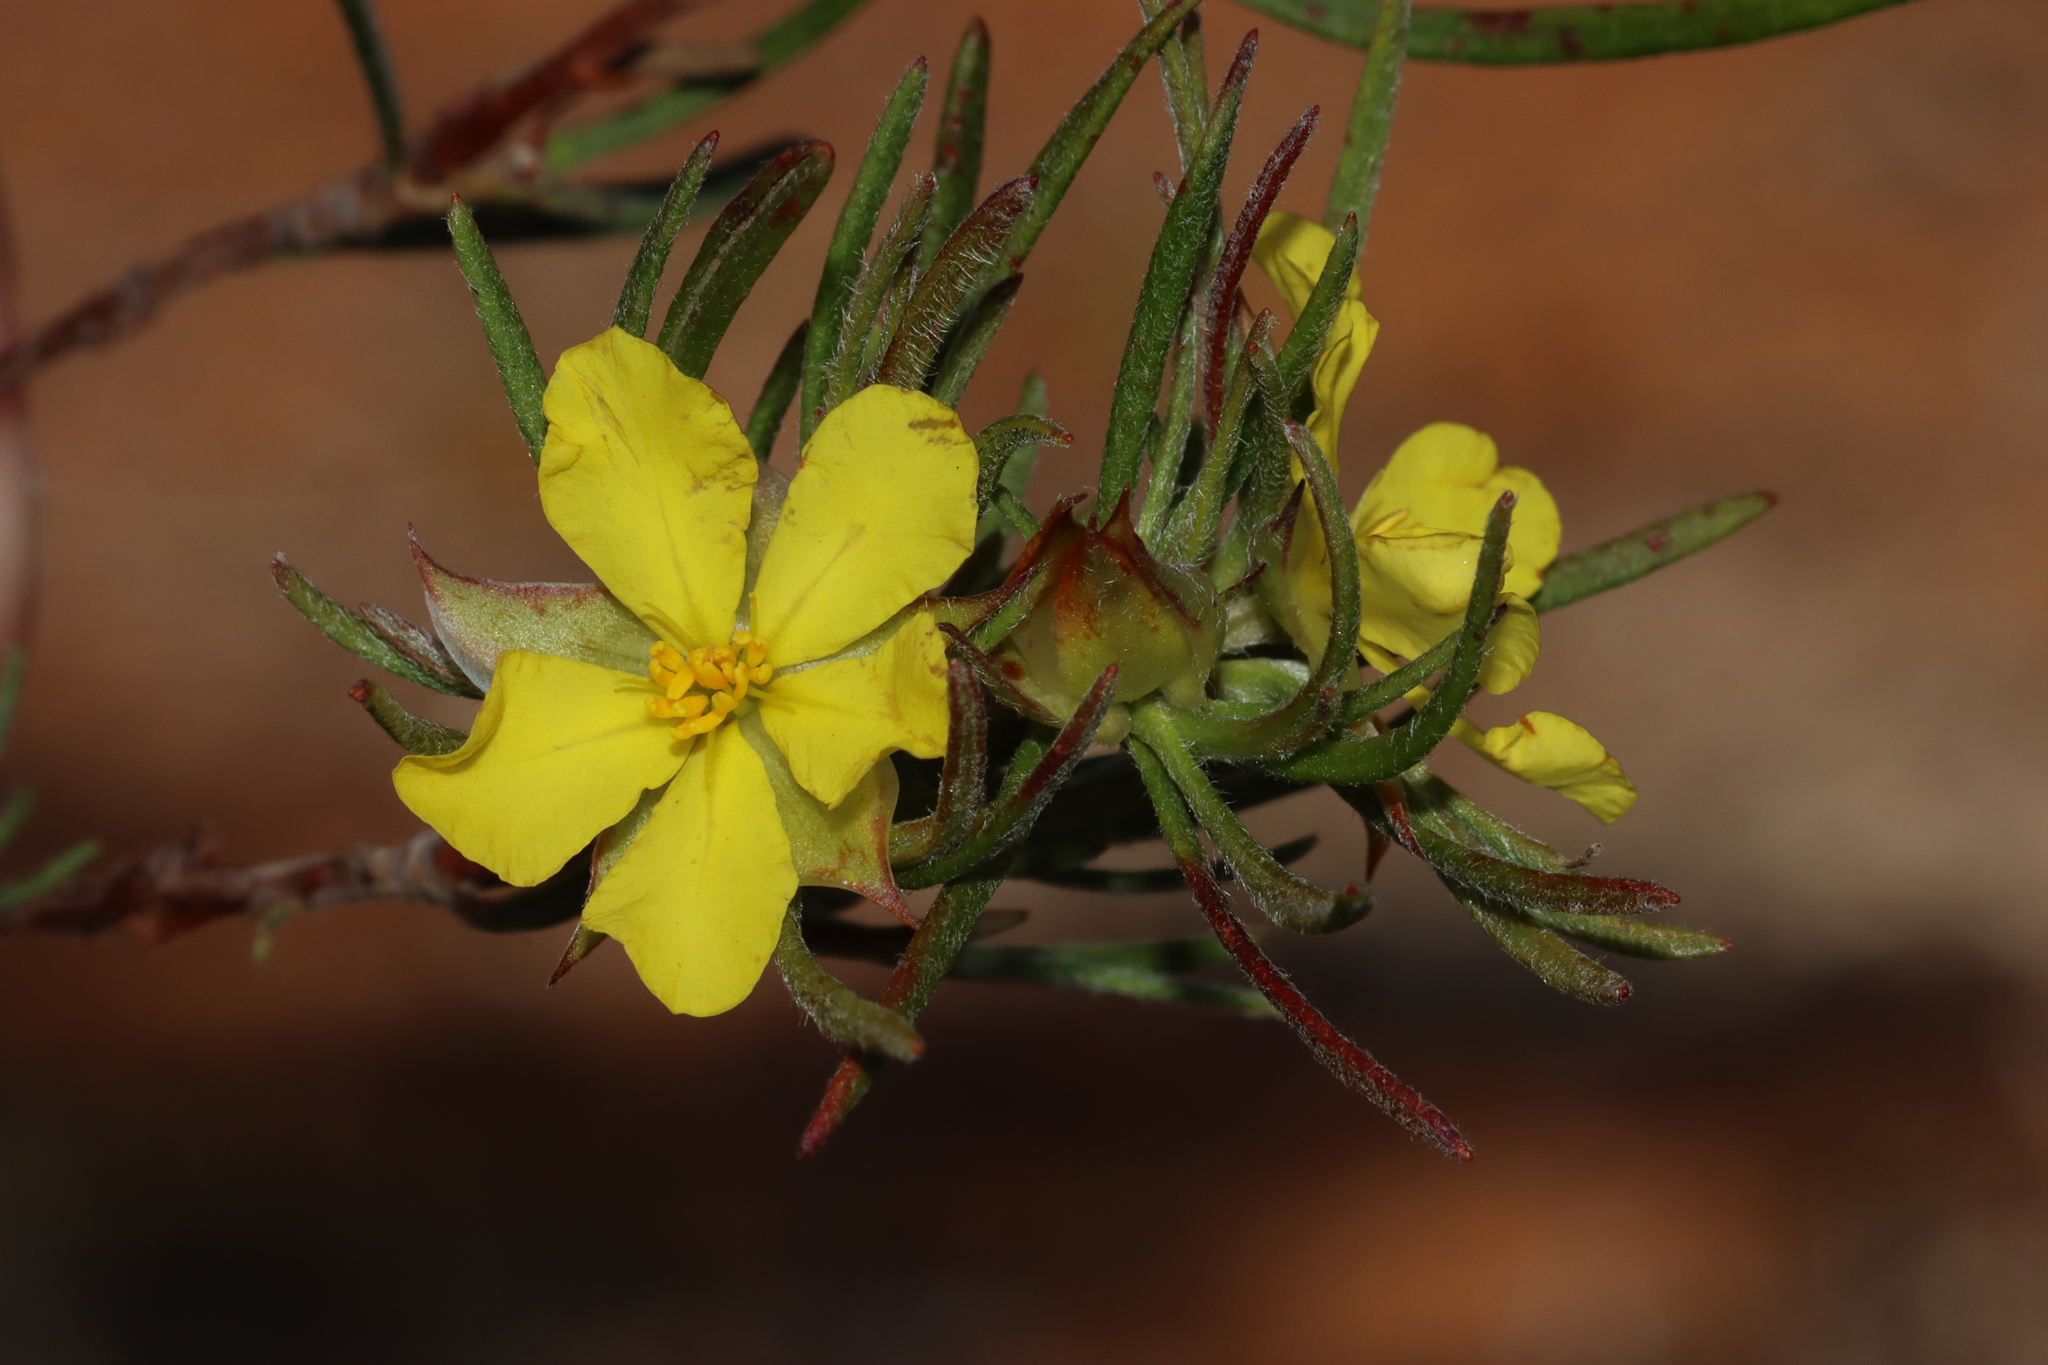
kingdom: Plantae
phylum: Tracheophyta
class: Magnoliopsida
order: Dilleniales
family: Dilleniaceae
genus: Hibbertia
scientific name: Hibbertia huegelii
